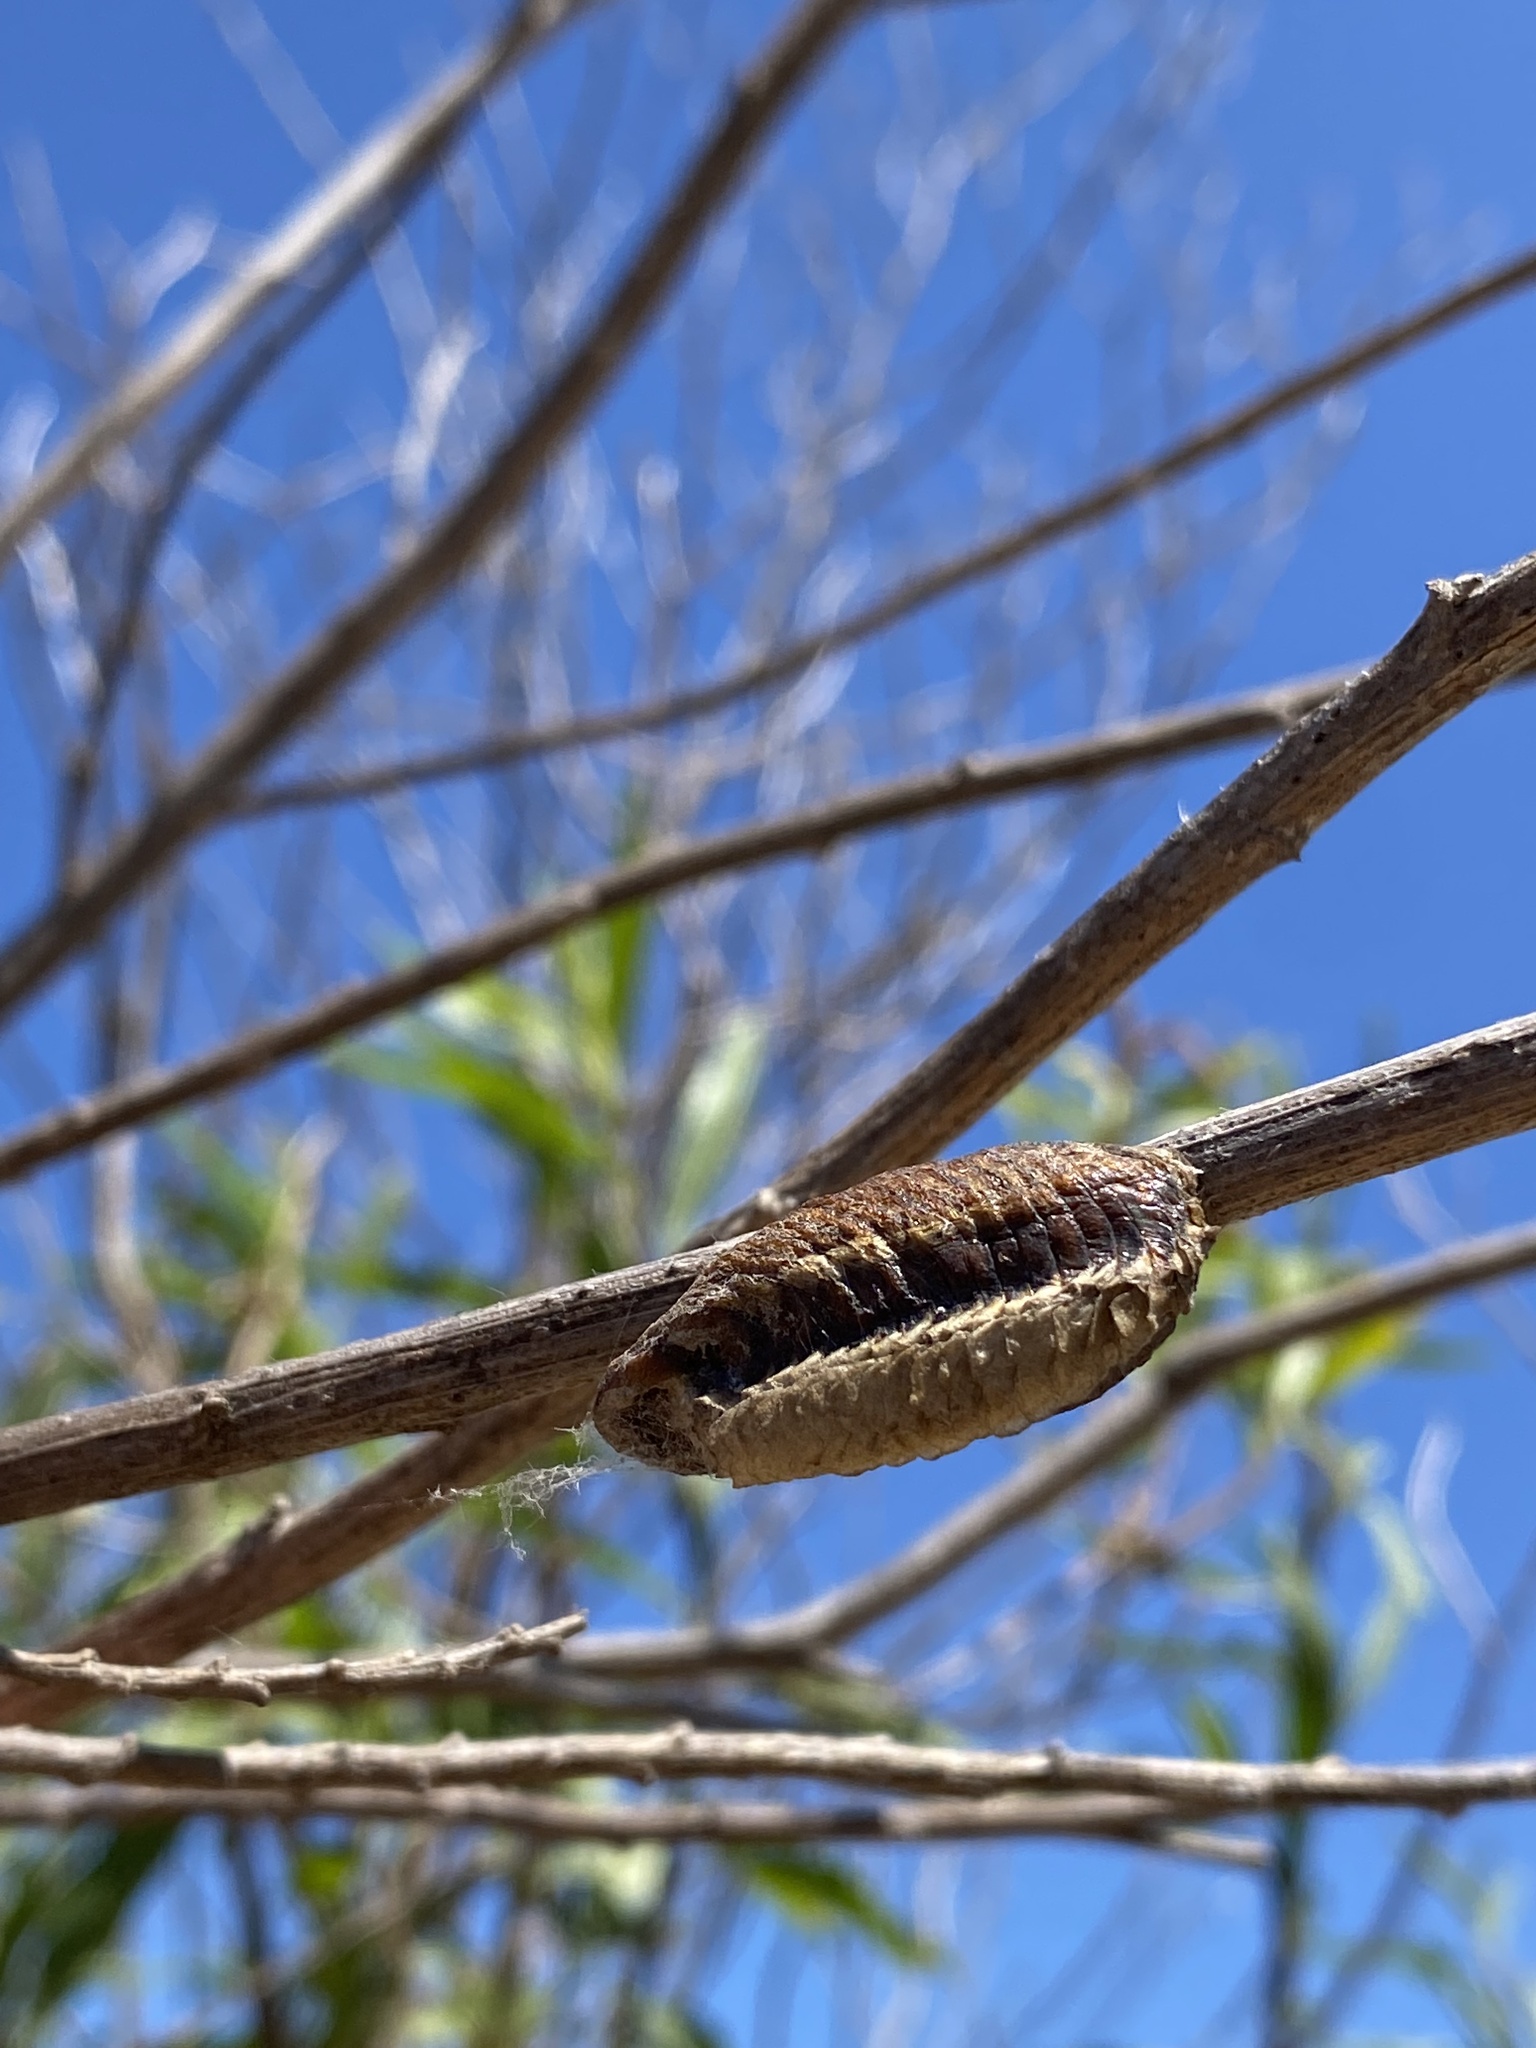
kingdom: Animalia
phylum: Arthropoda
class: Insecta
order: Mantodea
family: Mantidae
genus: Stagmatoptera
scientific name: Stagmatoptera hyaloptera
